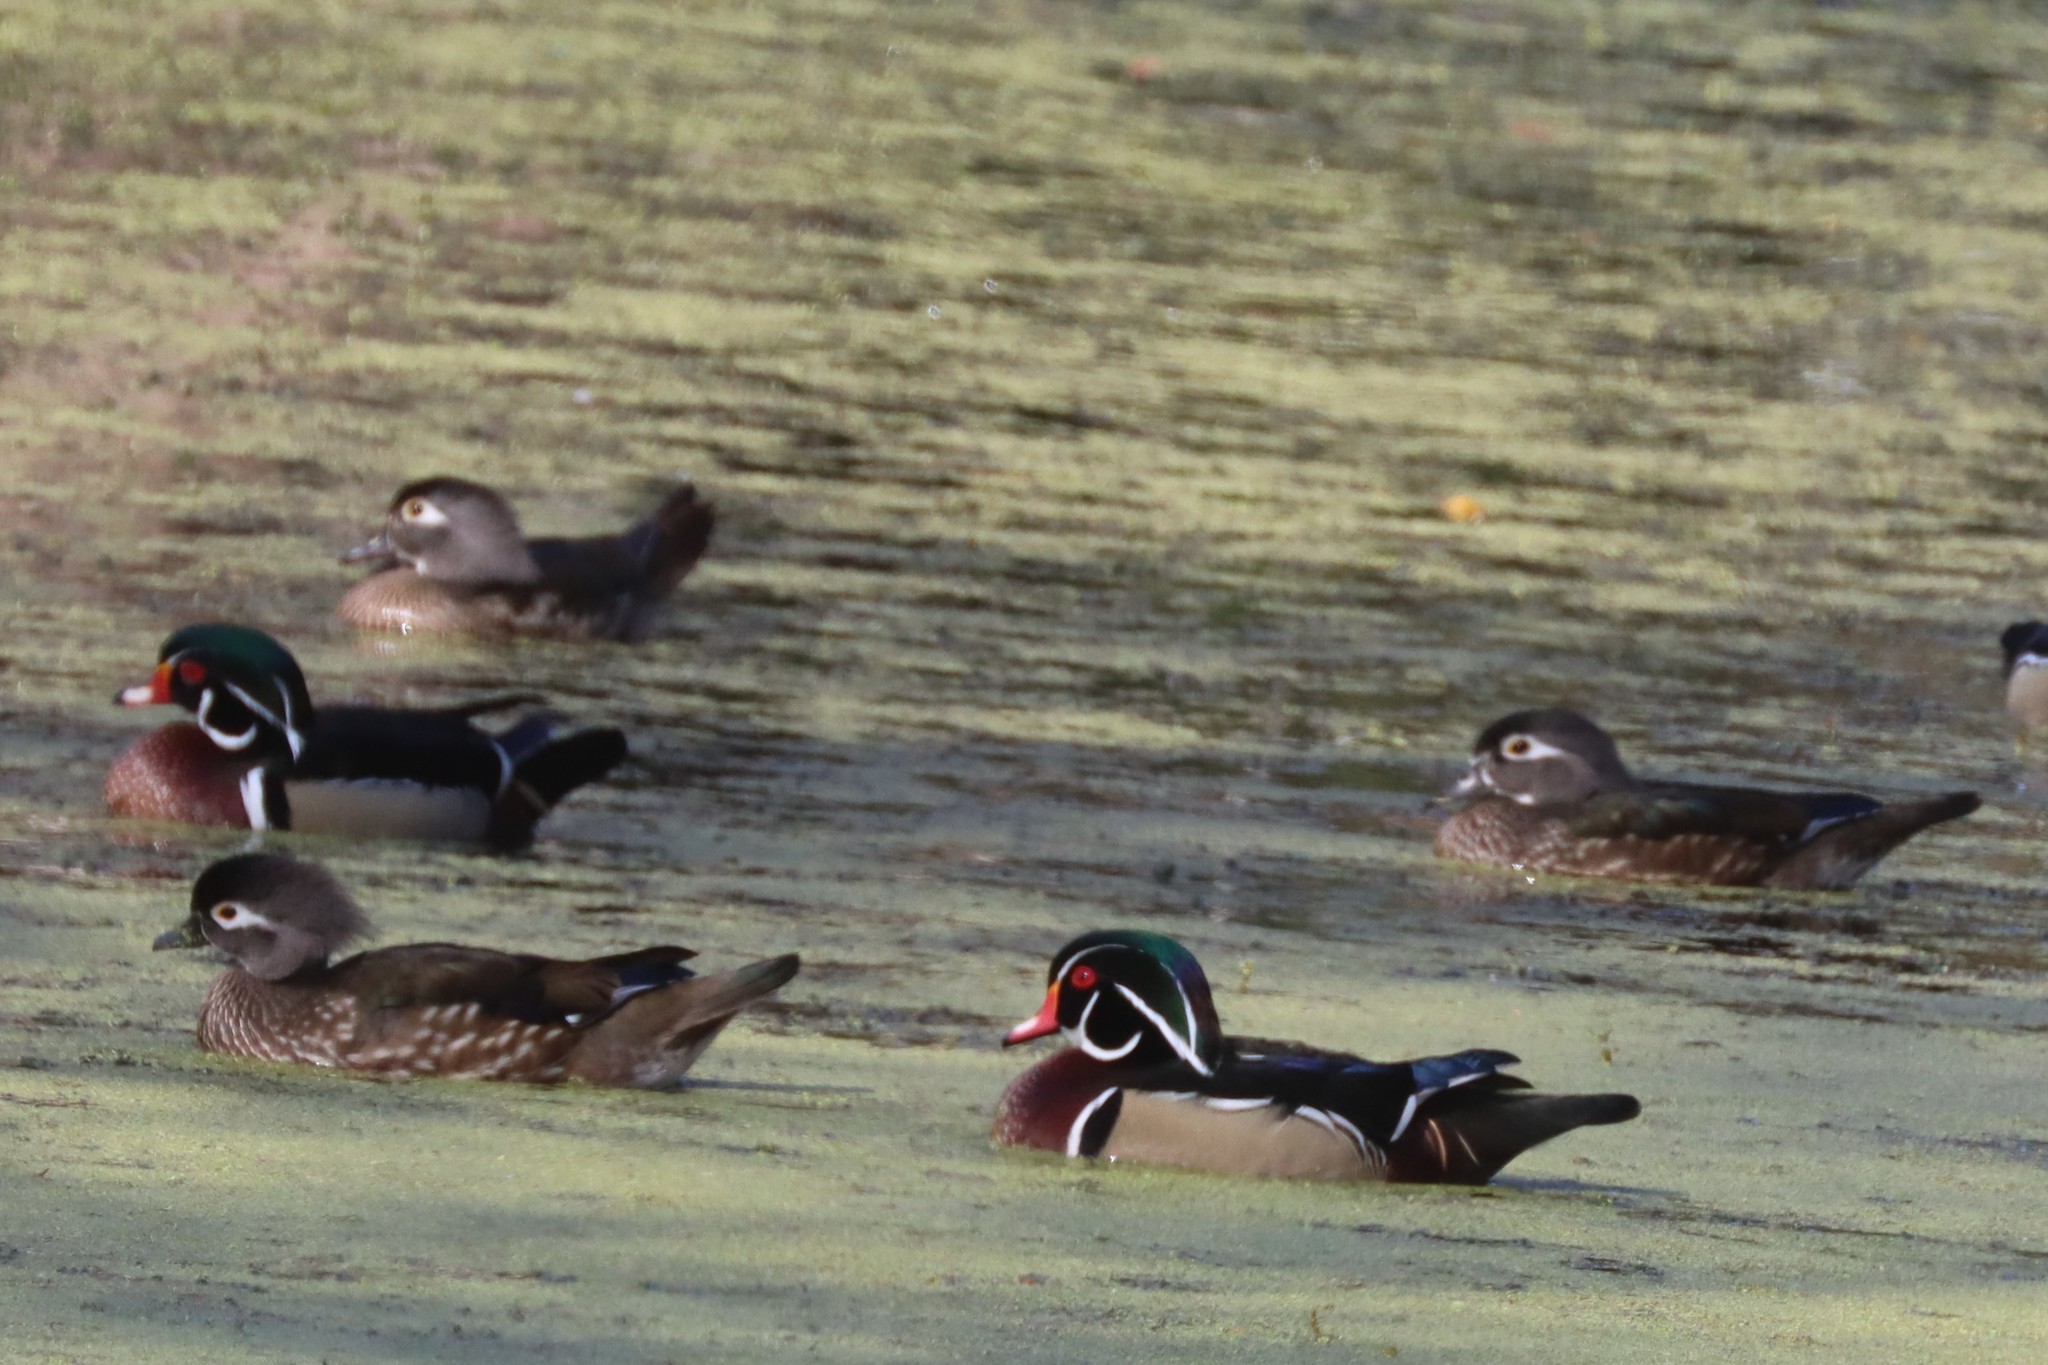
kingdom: Animalia
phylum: Chordata
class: Aves
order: Anseriformes
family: Anatidae
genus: Aix
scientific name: Aix sponsa
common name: Wood duck
